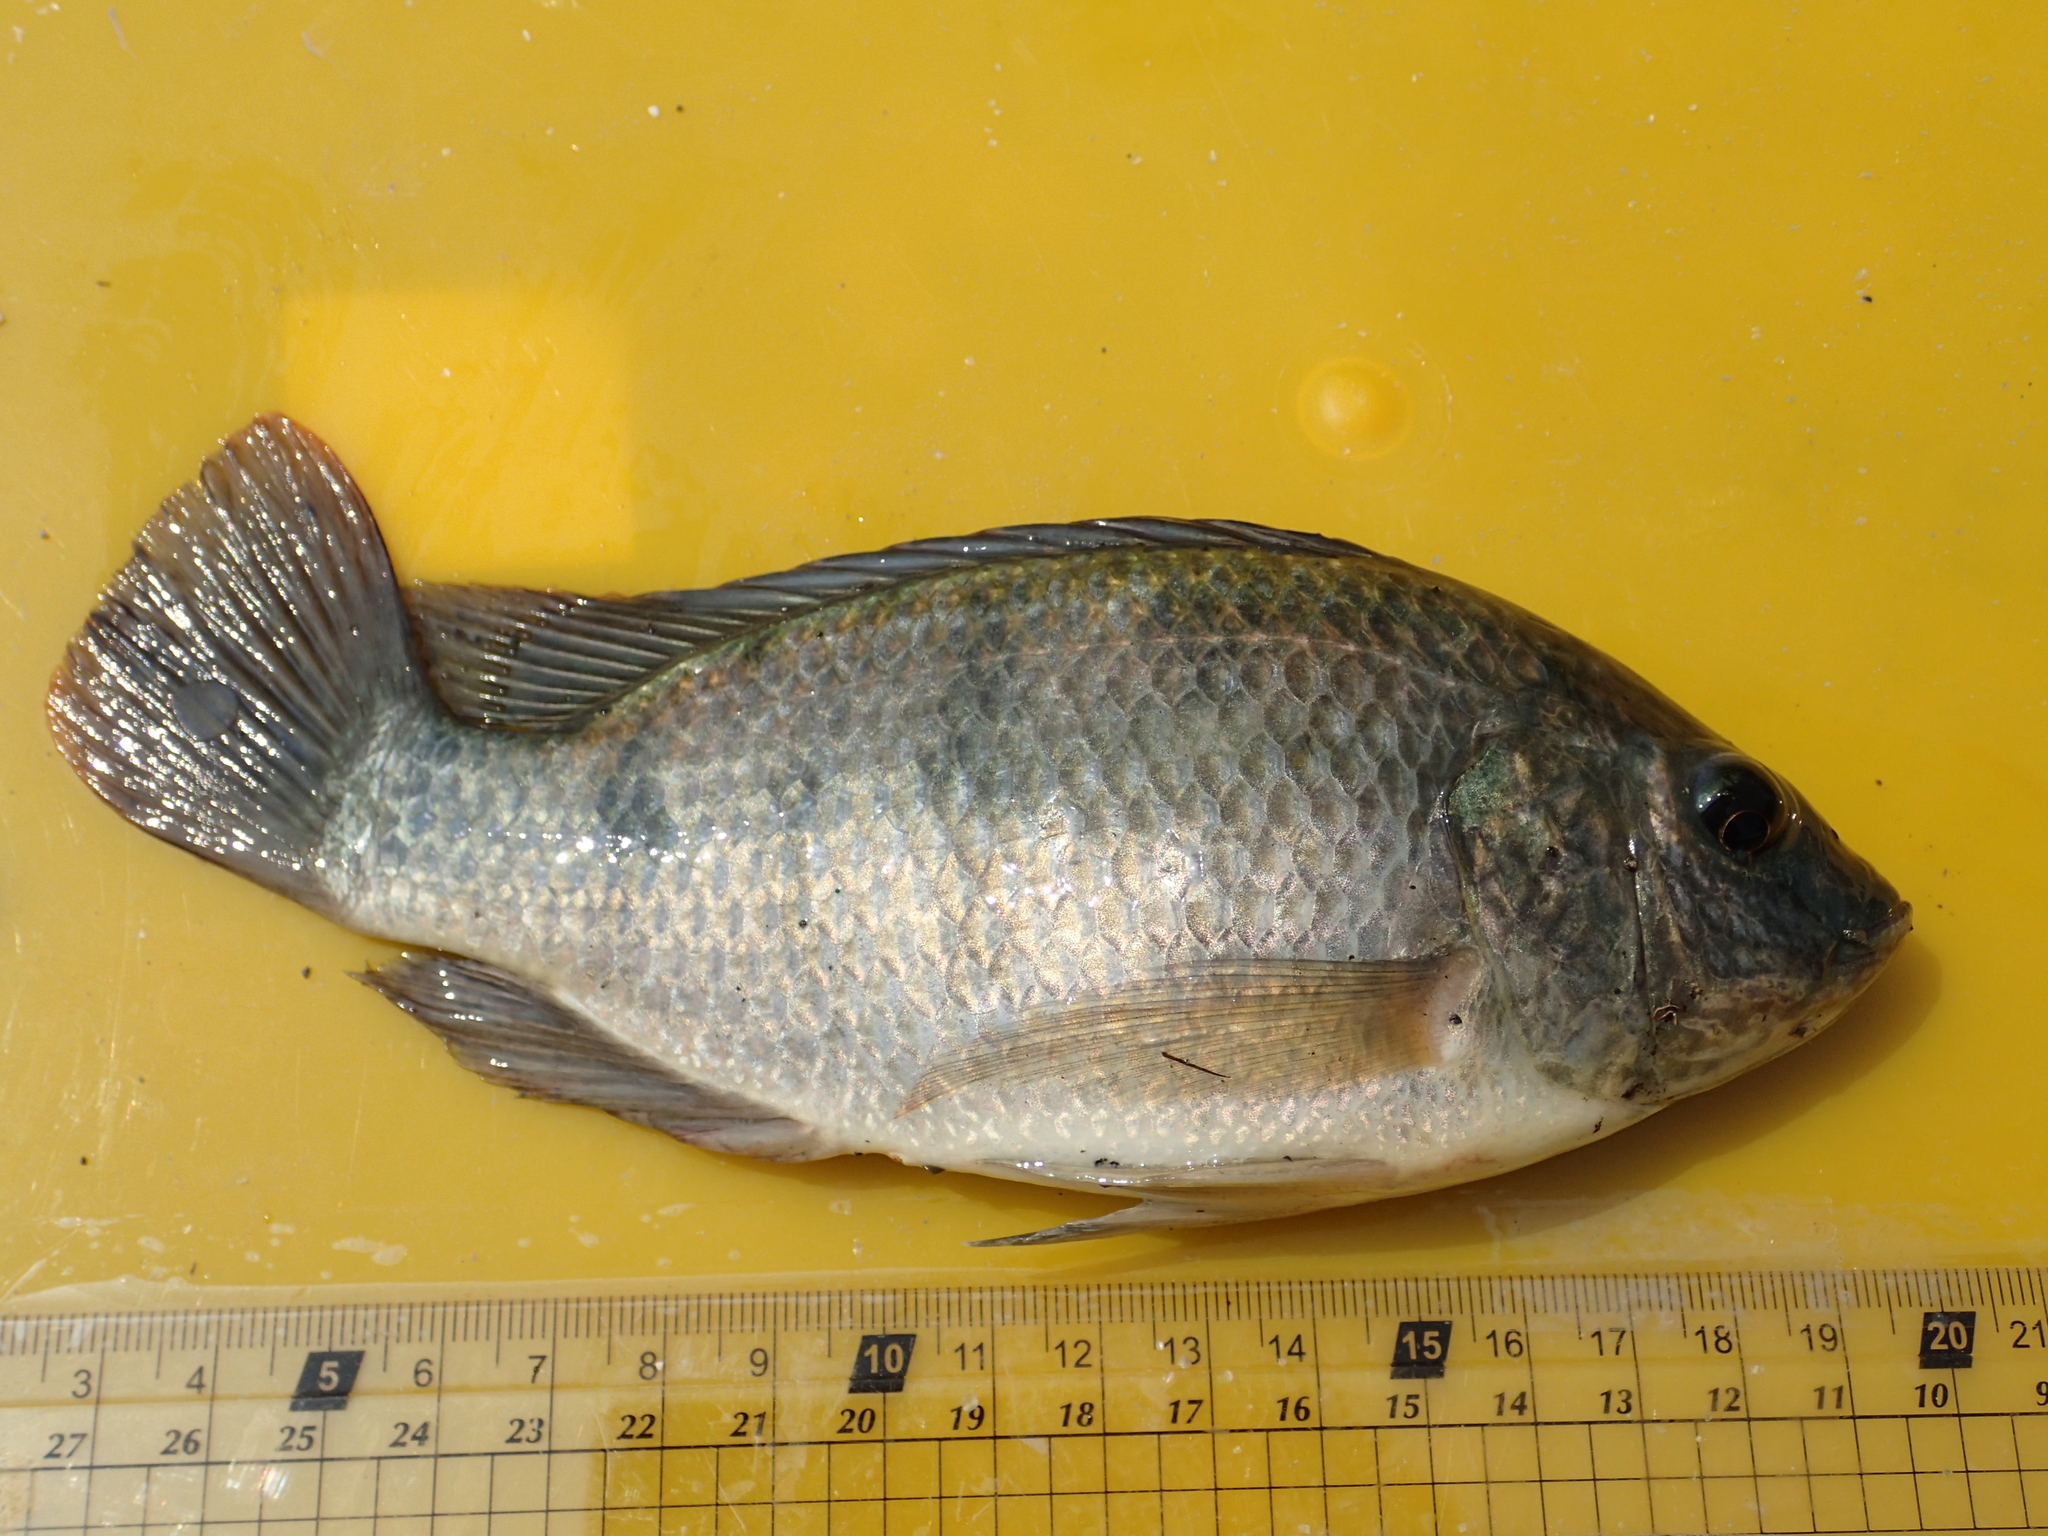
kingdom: Animalia
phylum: Chordata
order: Perciformes
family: Cichlidae
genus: Oreochromis
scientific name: Oreochromis mossambicus
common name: Mozambique tilapia
